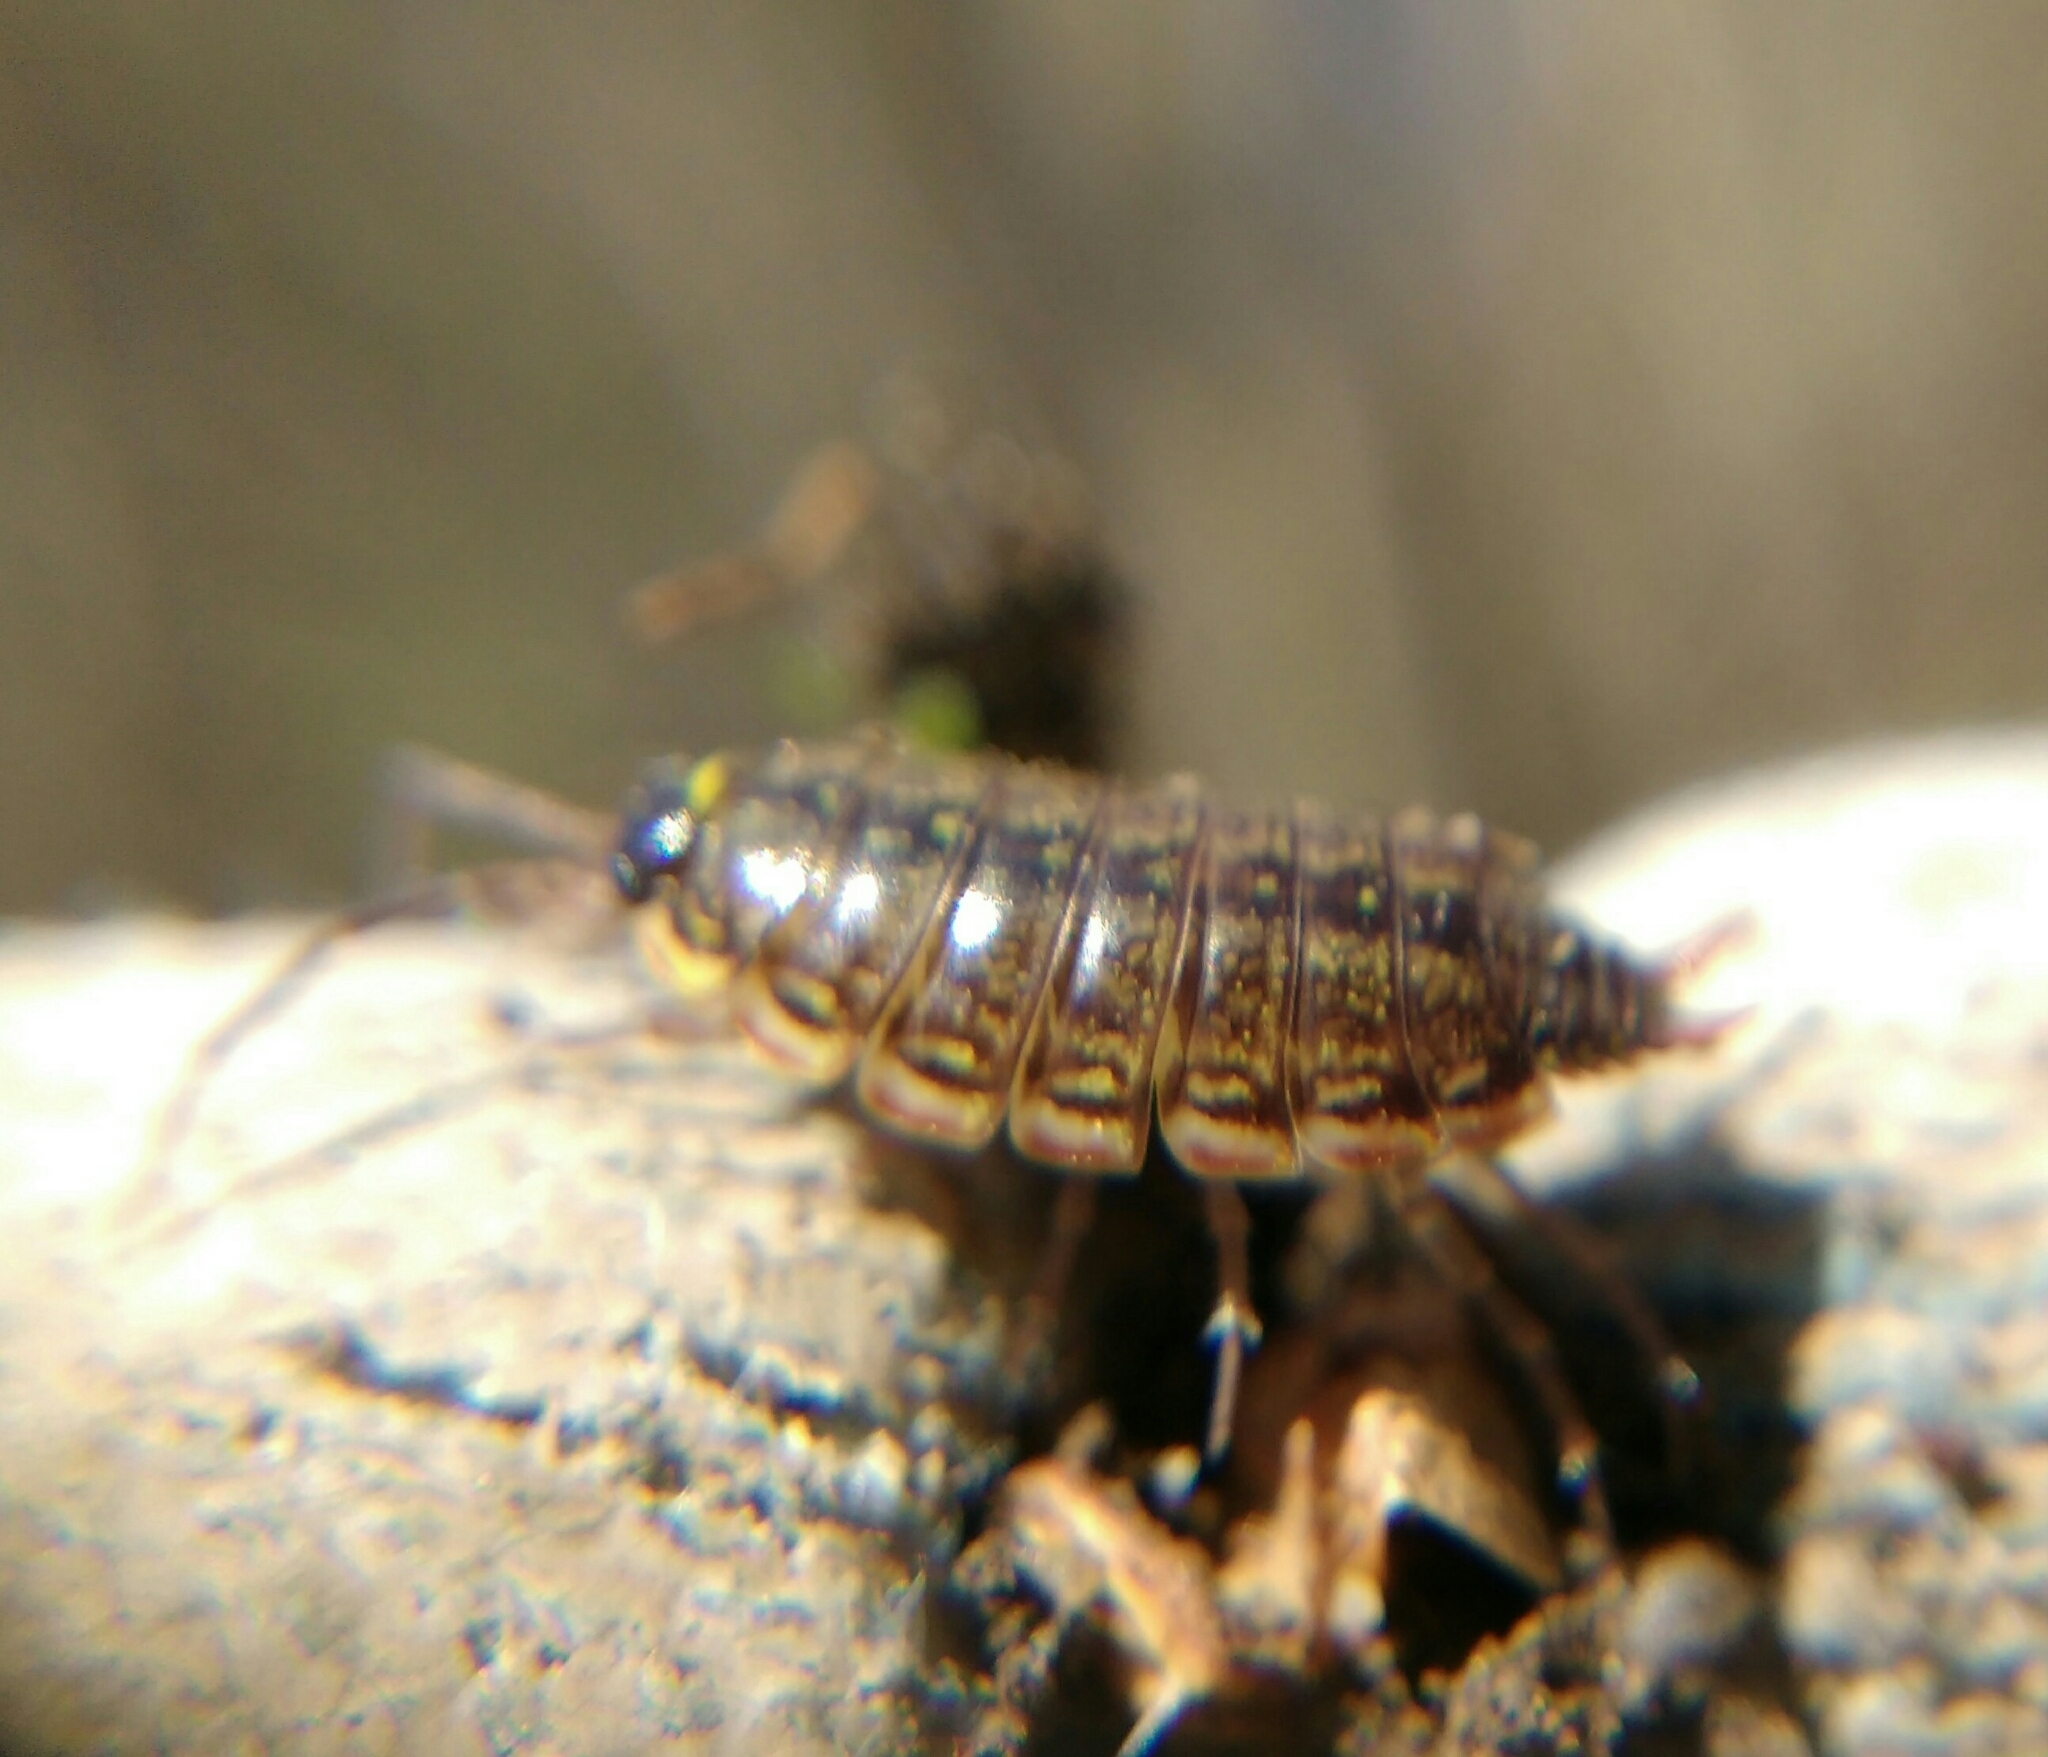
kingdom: Animalia
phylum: Arthropoda
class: Malacostraca
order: Isopoda
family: Philosciidae
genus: Philoscia
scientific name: Philoscia muscorum
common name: Common striped woodlouse
